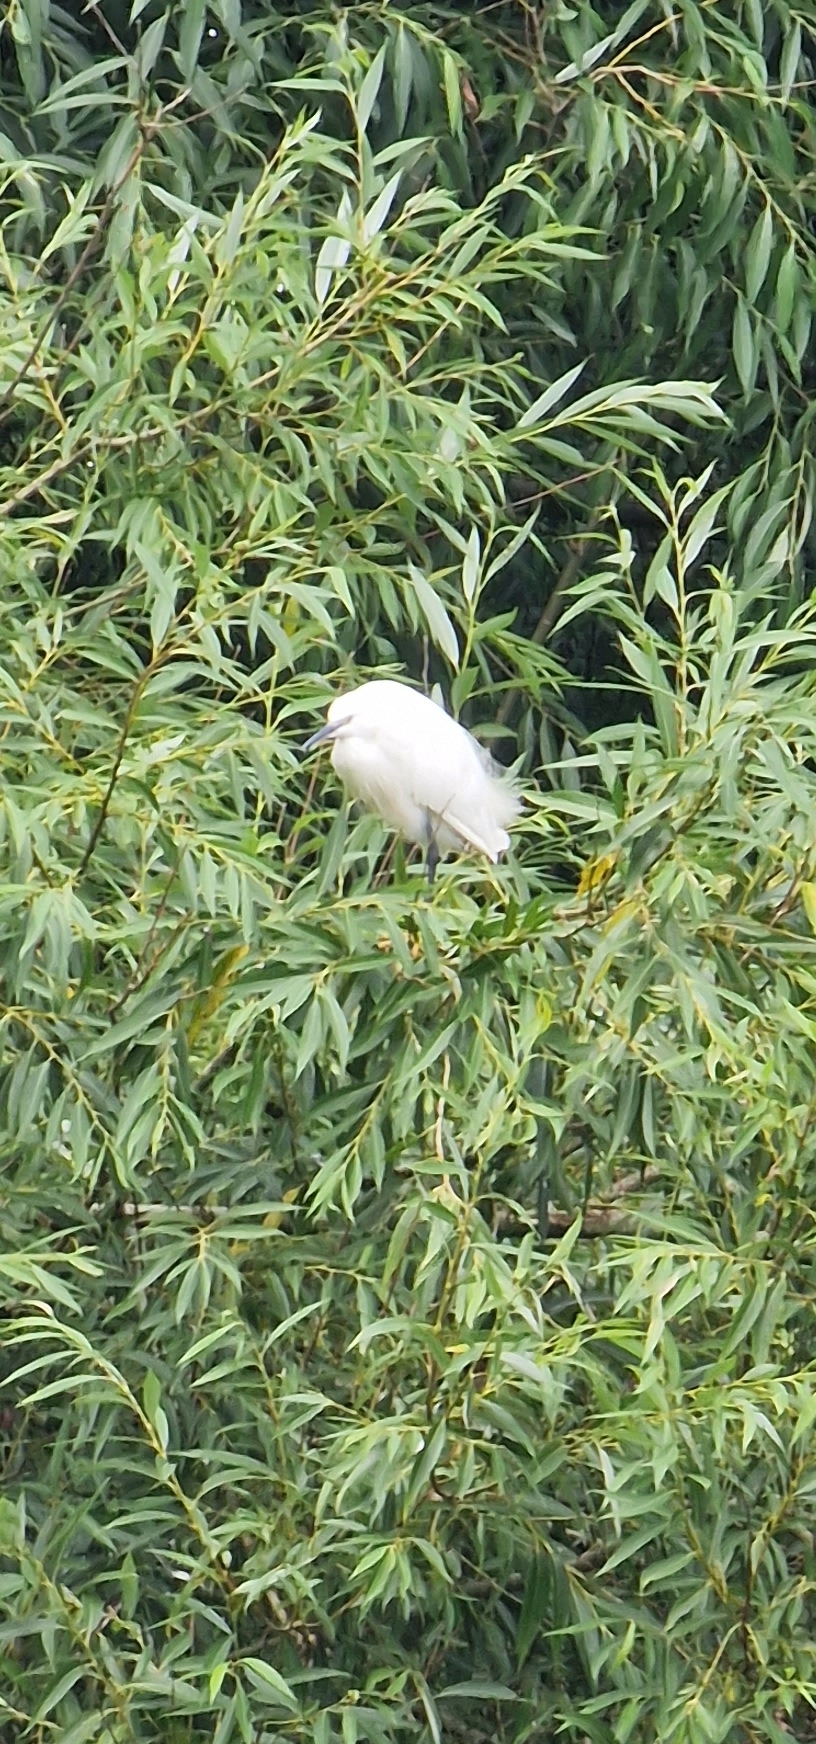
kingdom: Animalia
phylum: Chordata
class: Aves
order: Pelecaniformes
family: Ardeidae
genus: Egretta
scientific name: Egretta garzetta
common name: Little egret
